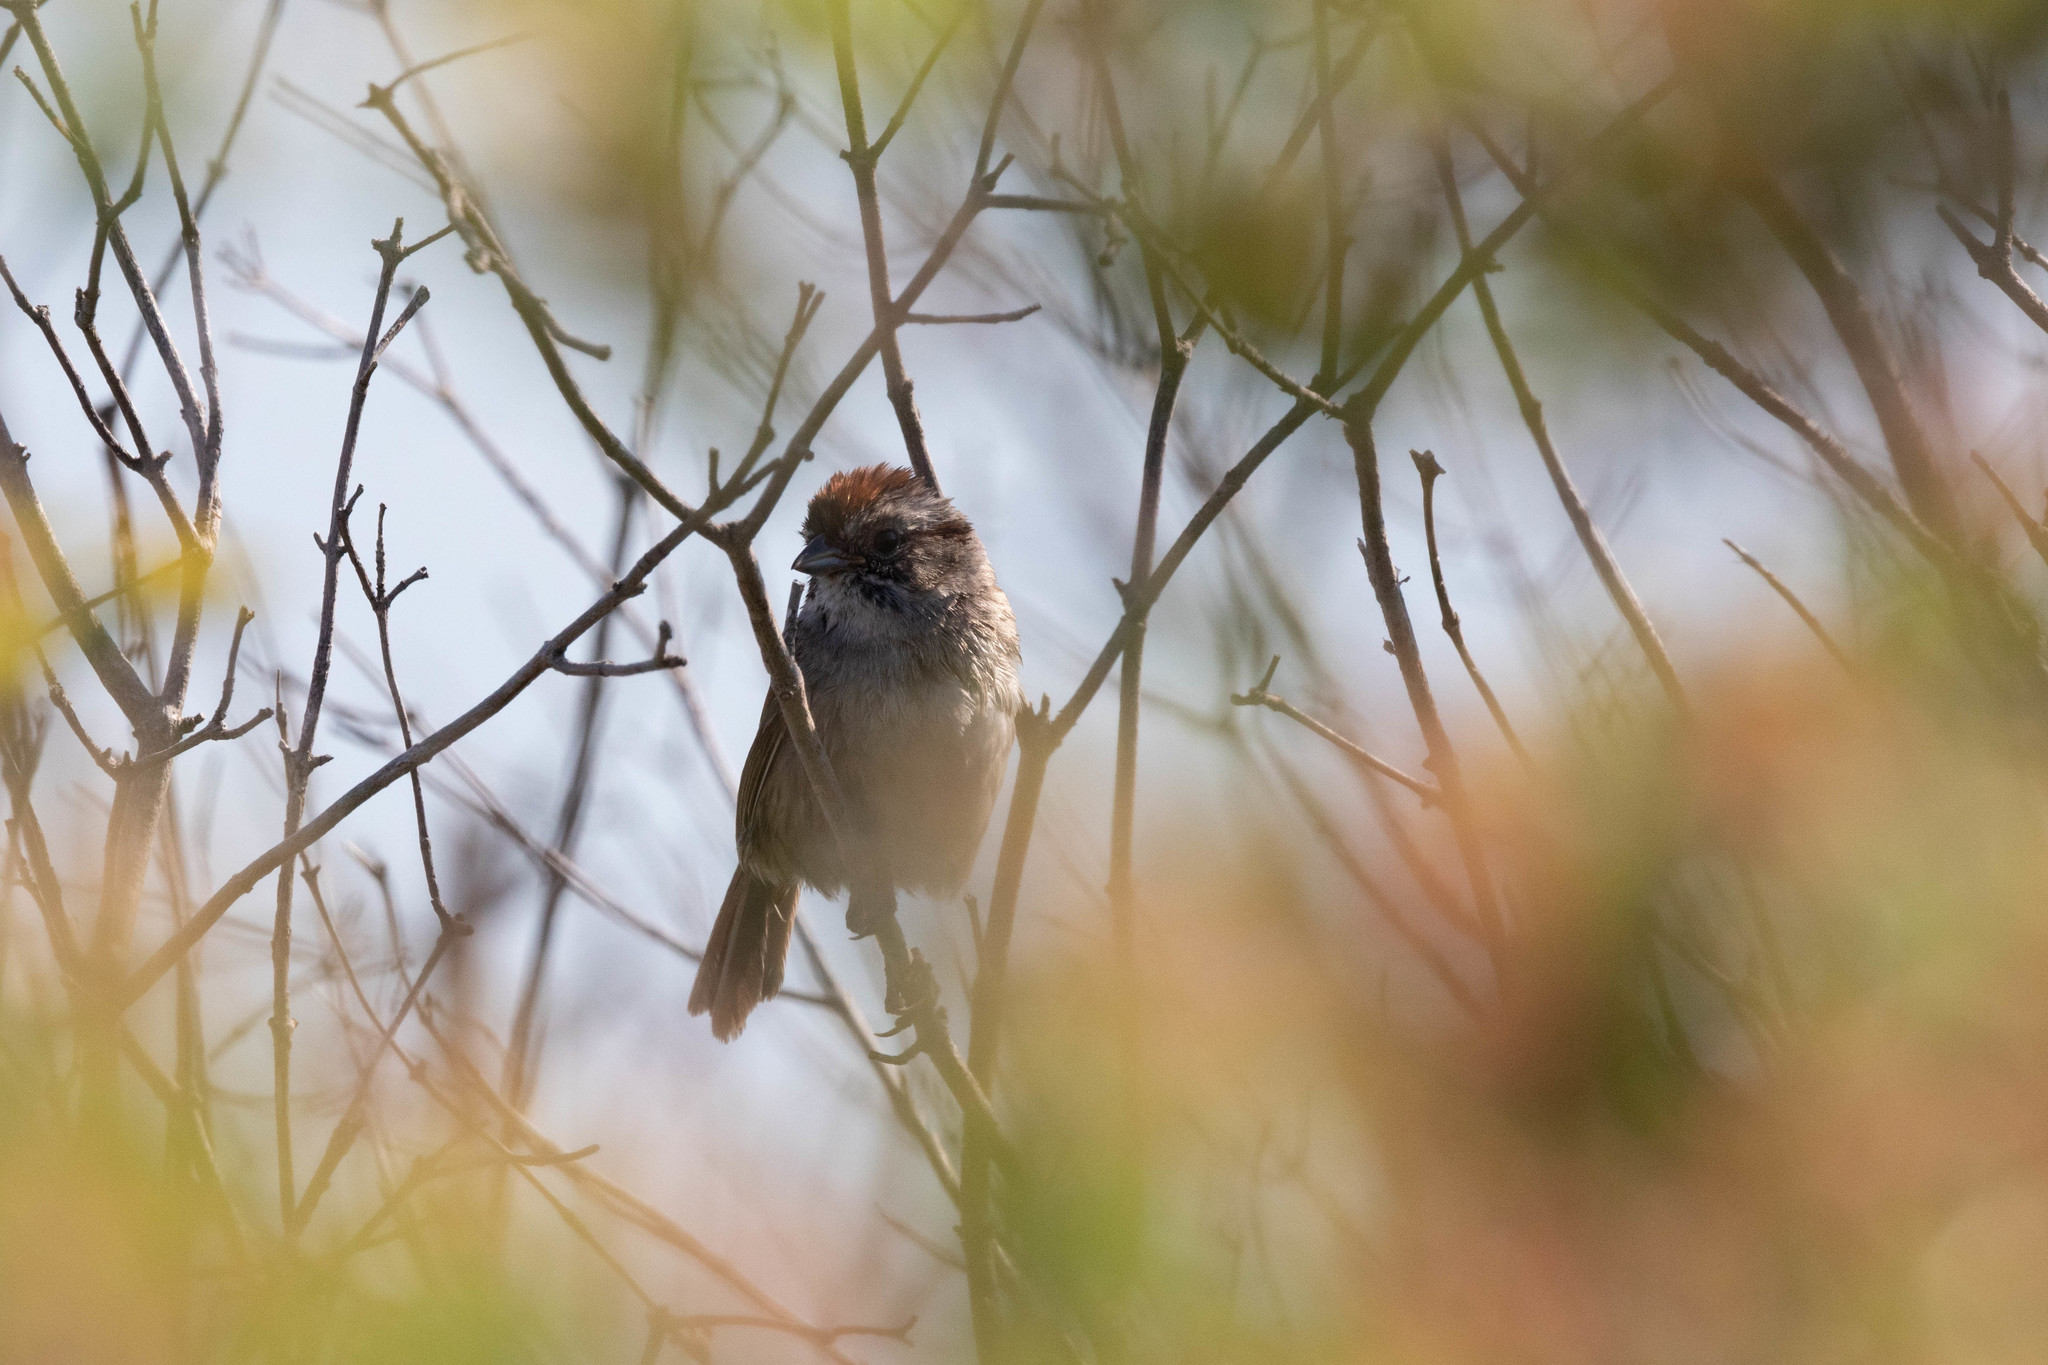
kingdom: Animalia
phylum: Chordata
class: Aves
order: Passeriformes
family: Passerellidae
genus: Melospiza
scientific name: Melospiza georgiana
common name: Swamp sparrow
